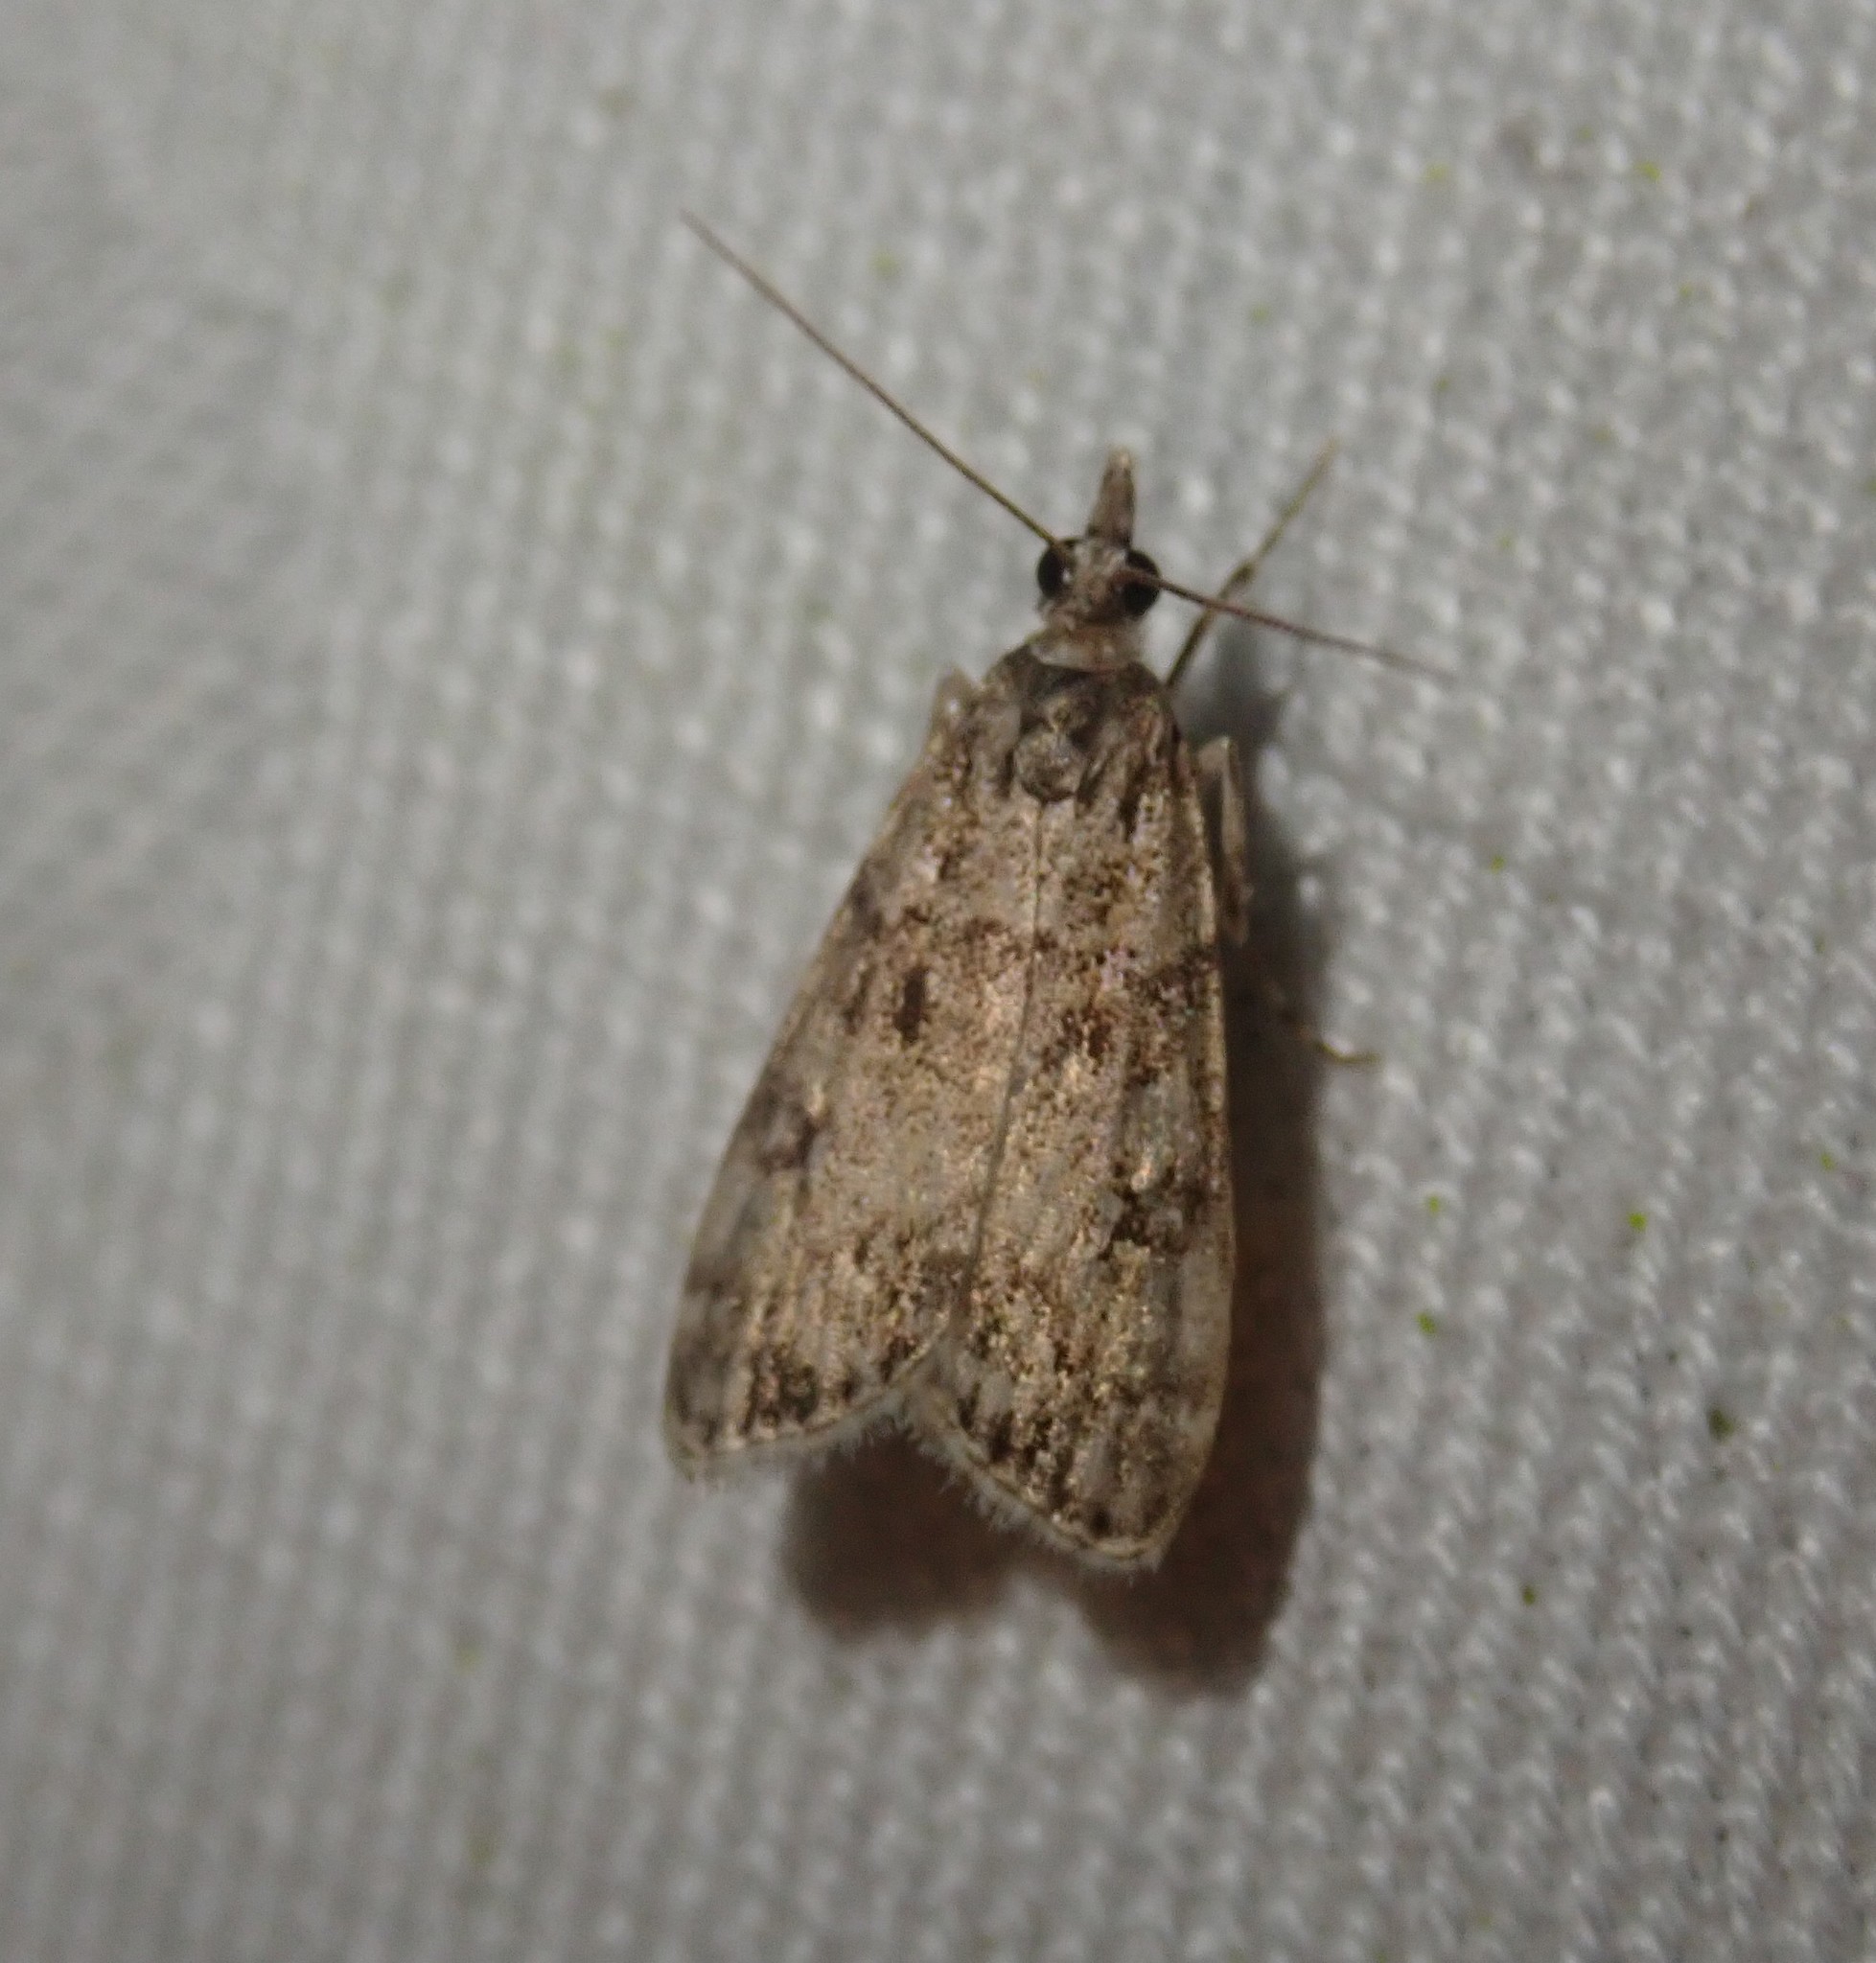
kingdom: Animalia
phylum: Arthropoda
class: Insecta
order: Lepidoptera
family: Crambidae
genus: Eudonia
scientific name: Eudonia lacustrata
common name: Little grey
